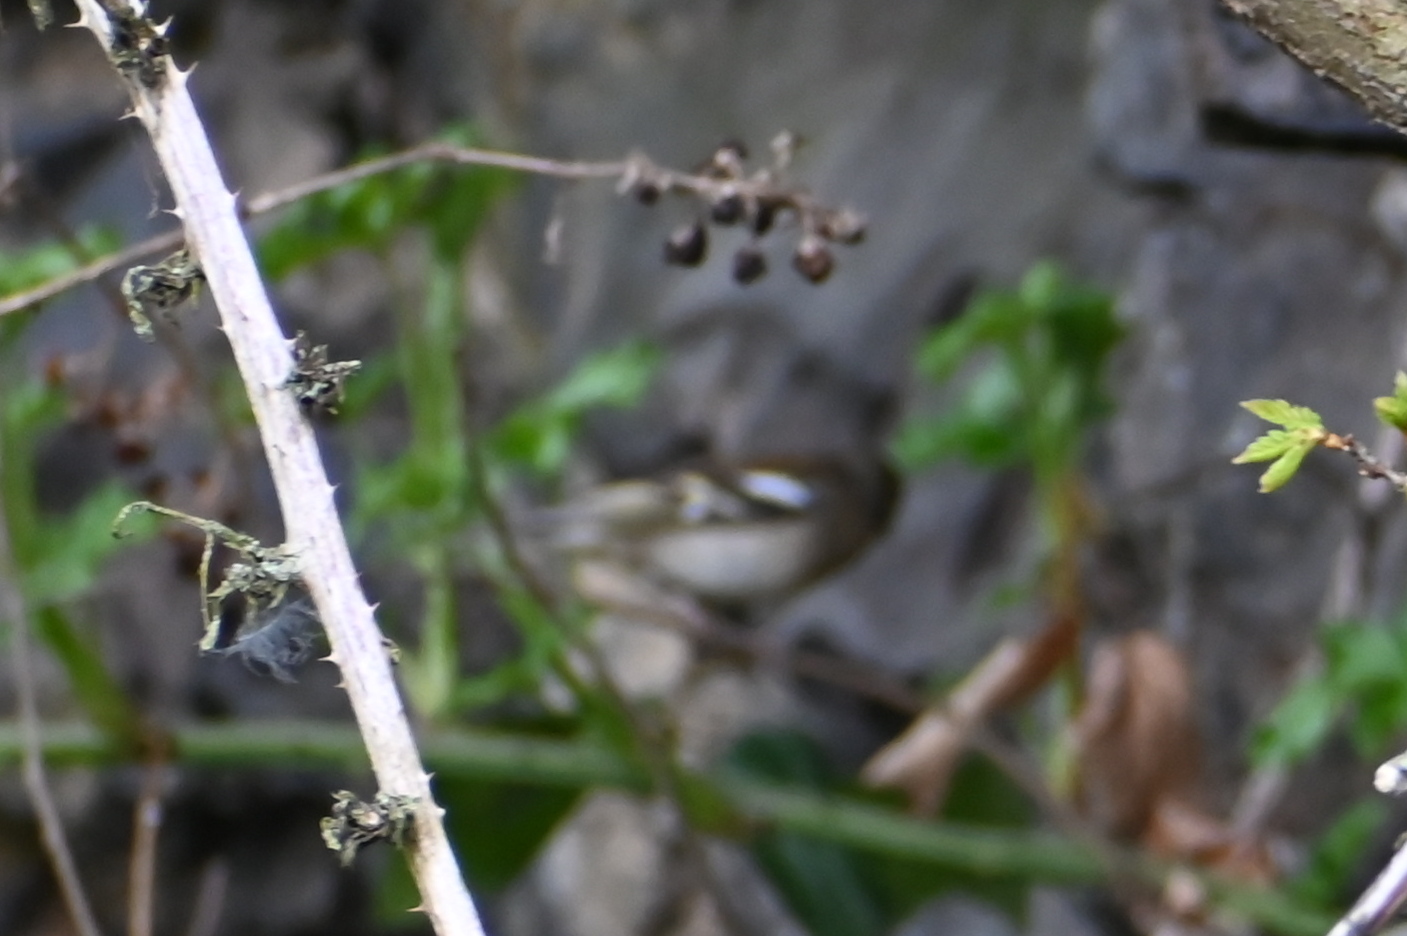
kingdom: Animalia
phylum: Chordata
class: Aves
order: Passeriformes
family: Fringillidae
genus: Fringilla
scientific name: Fringilla coelebs
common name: Common chaffinch
